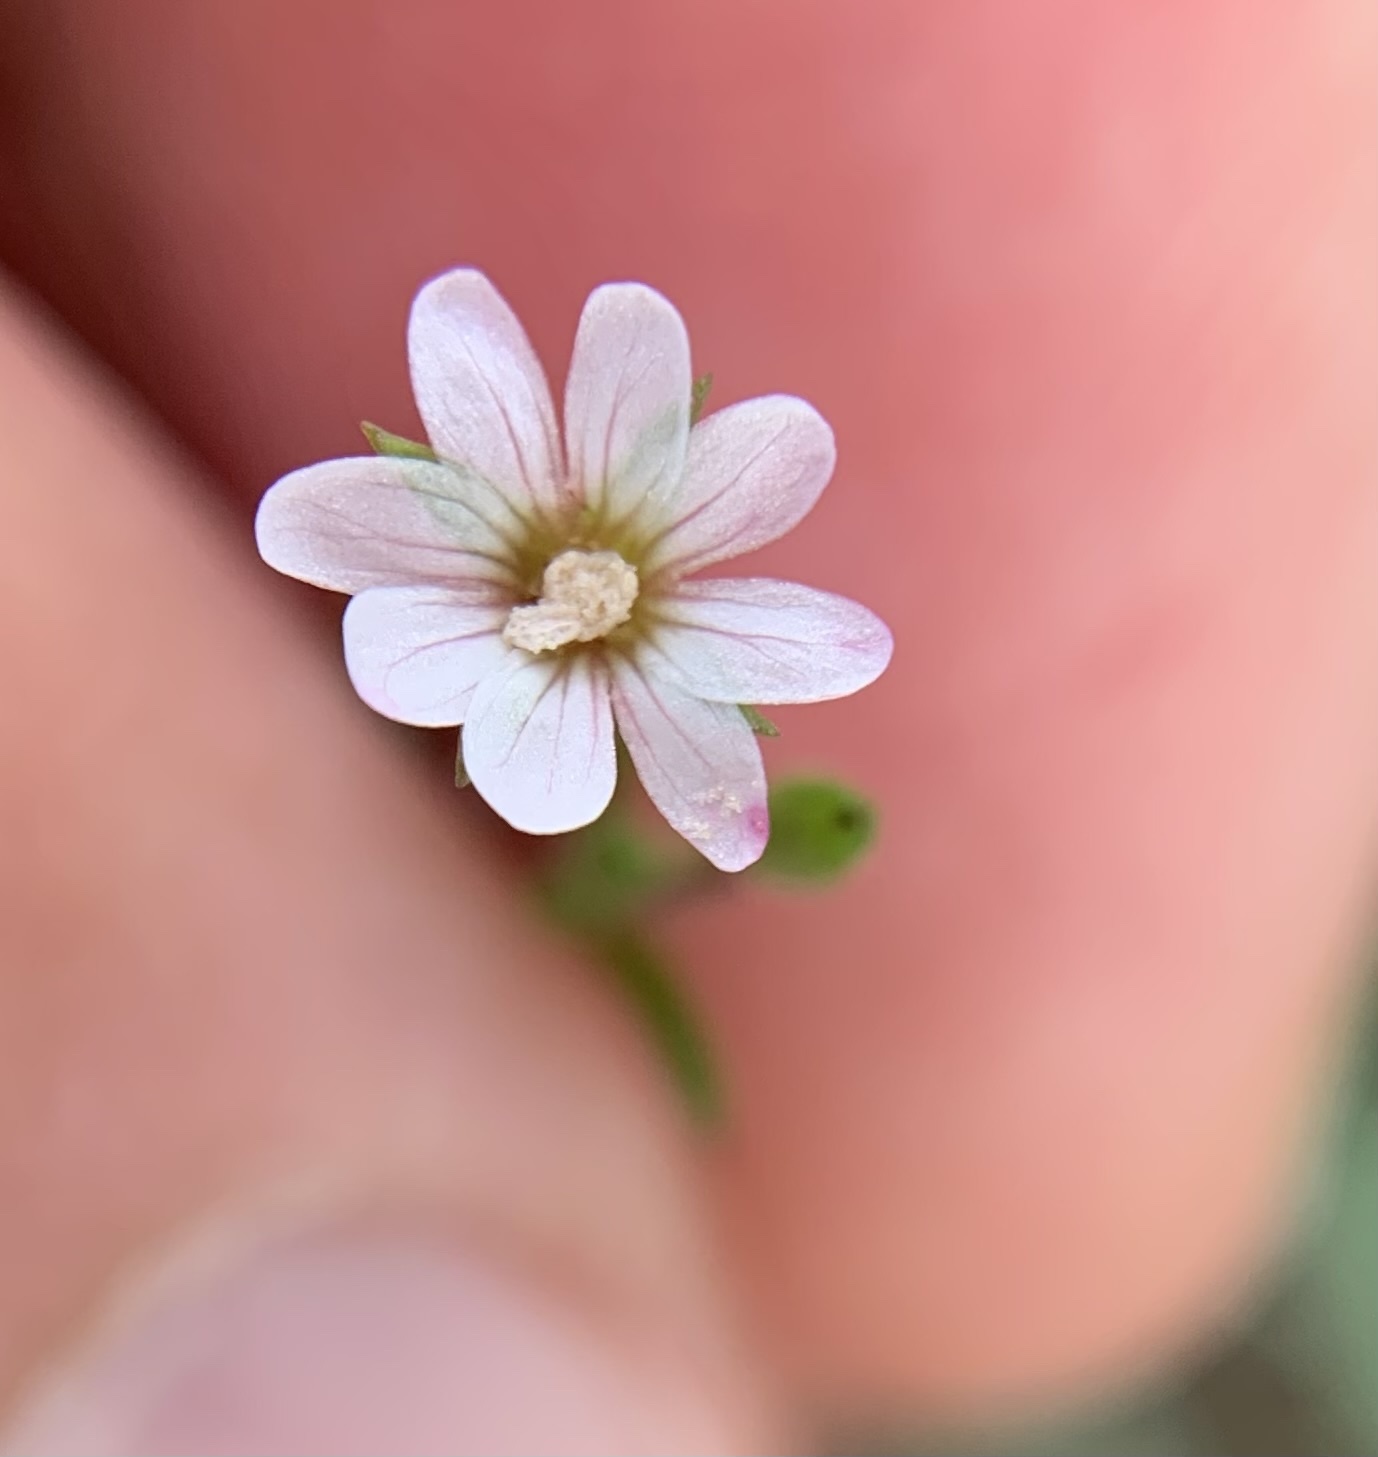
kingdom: Plantae
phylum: Tracheophyta
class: Magnoliopsida
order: Myrtales
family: Onagraceae
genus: Epilobium
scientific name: Epilobium brachycarpum
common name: Annual willowherb
